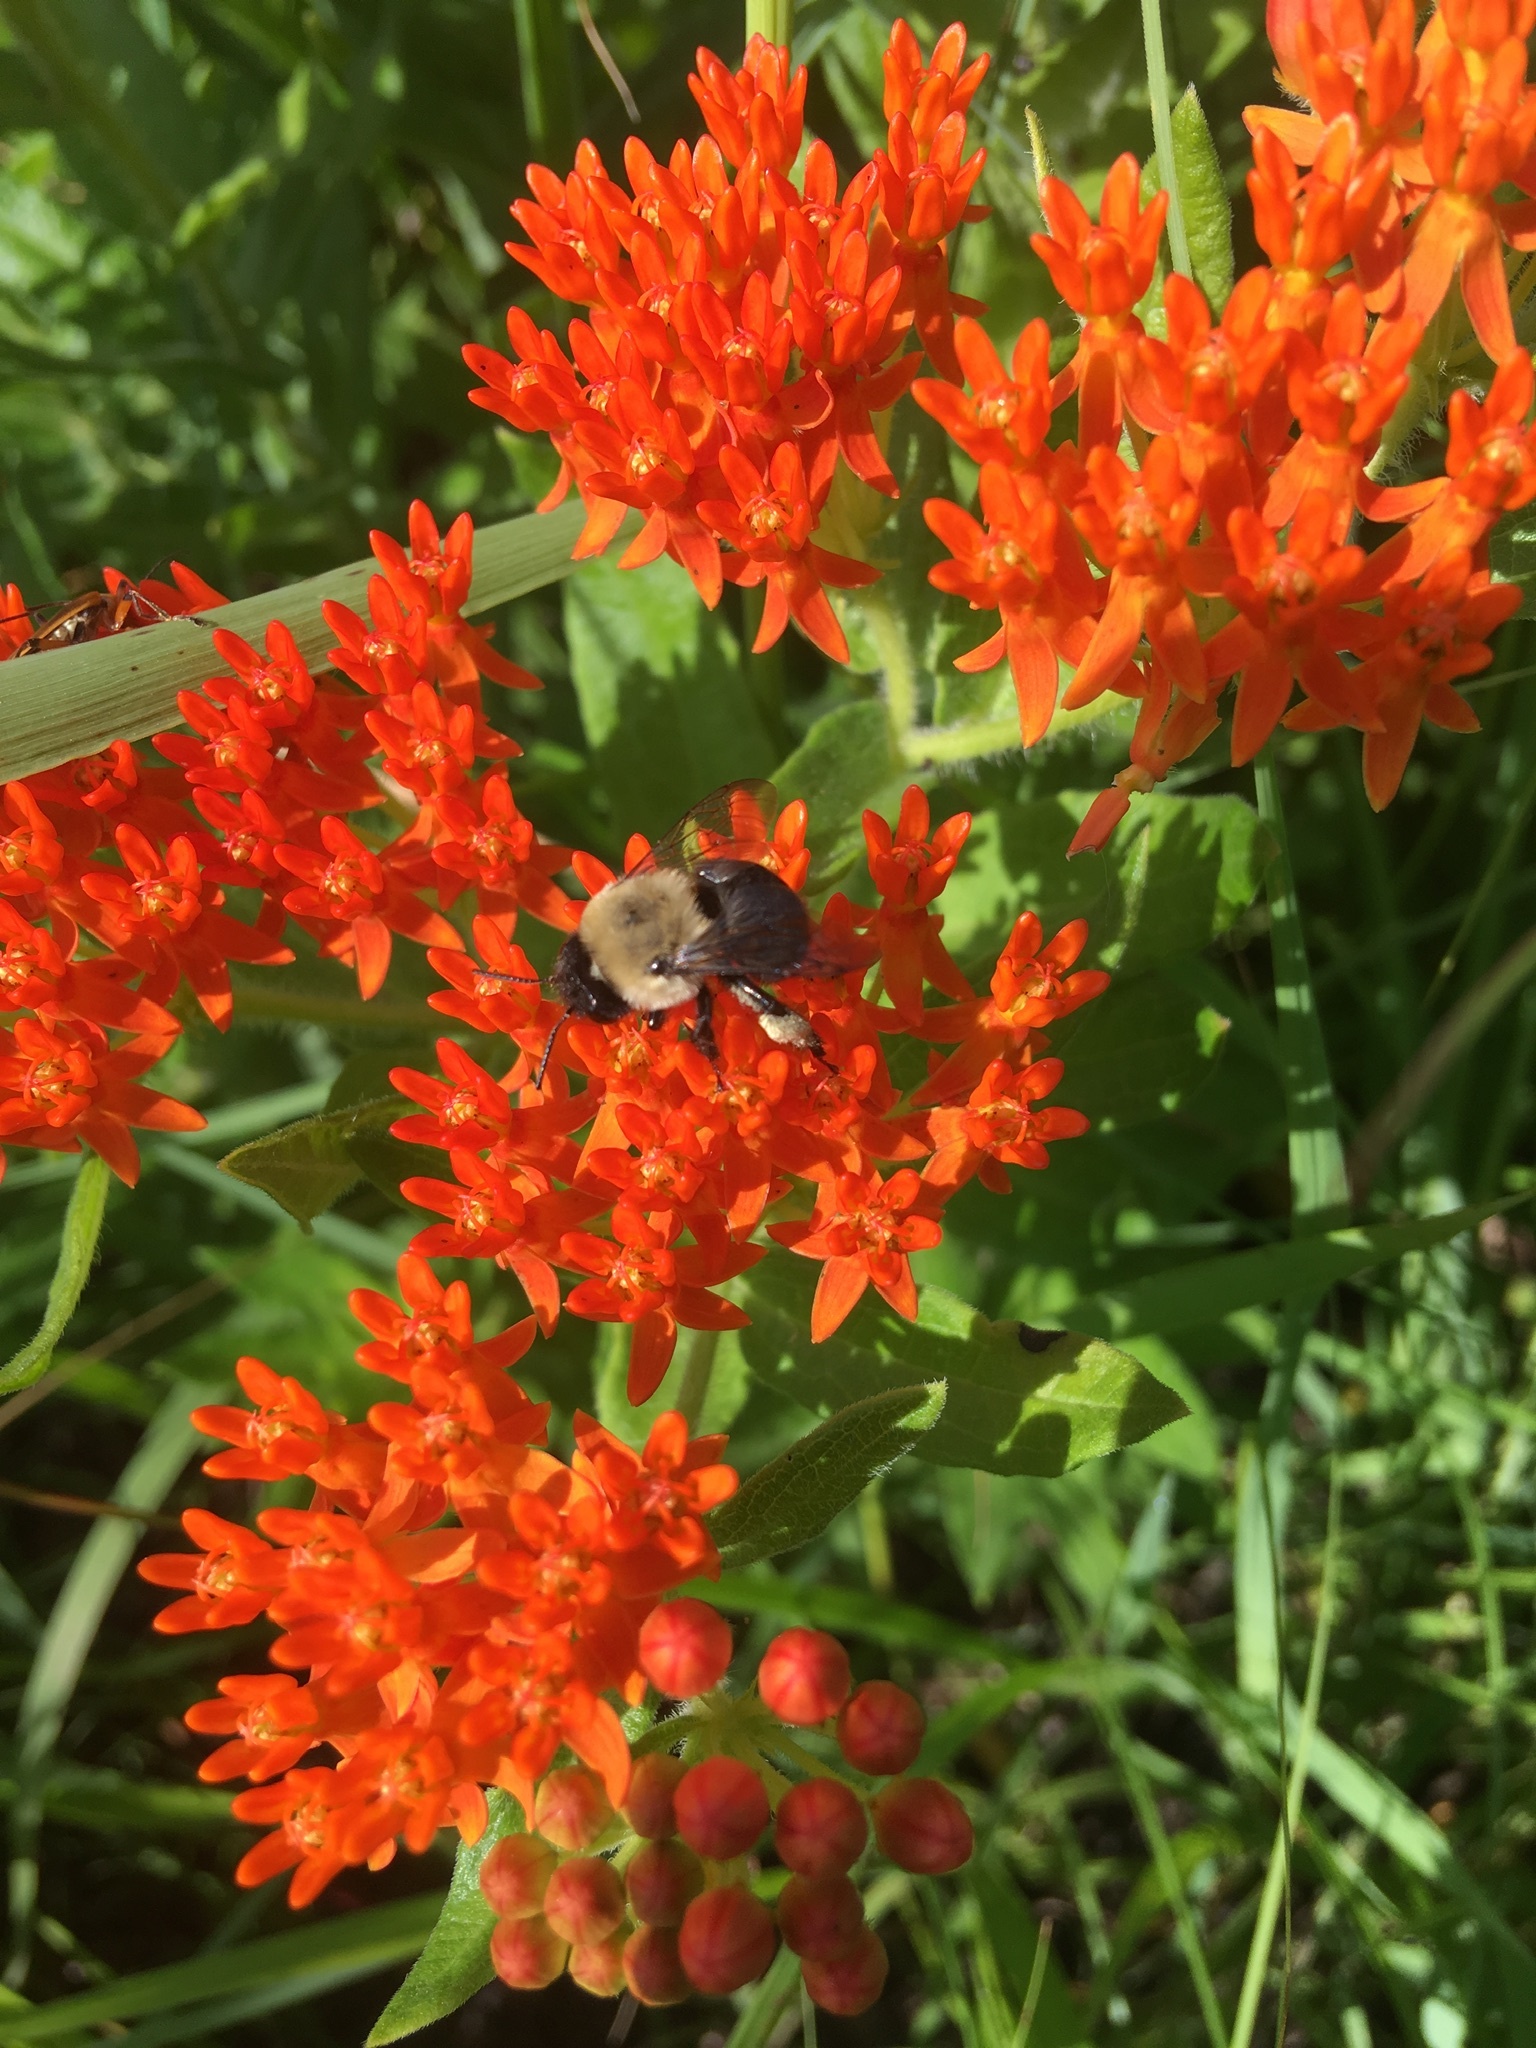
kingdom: Animalia
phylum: Arthropoda
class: Insecta
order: Hymenoptera
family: Apidae
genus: Anthophora
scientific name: Anthophora abrupta
